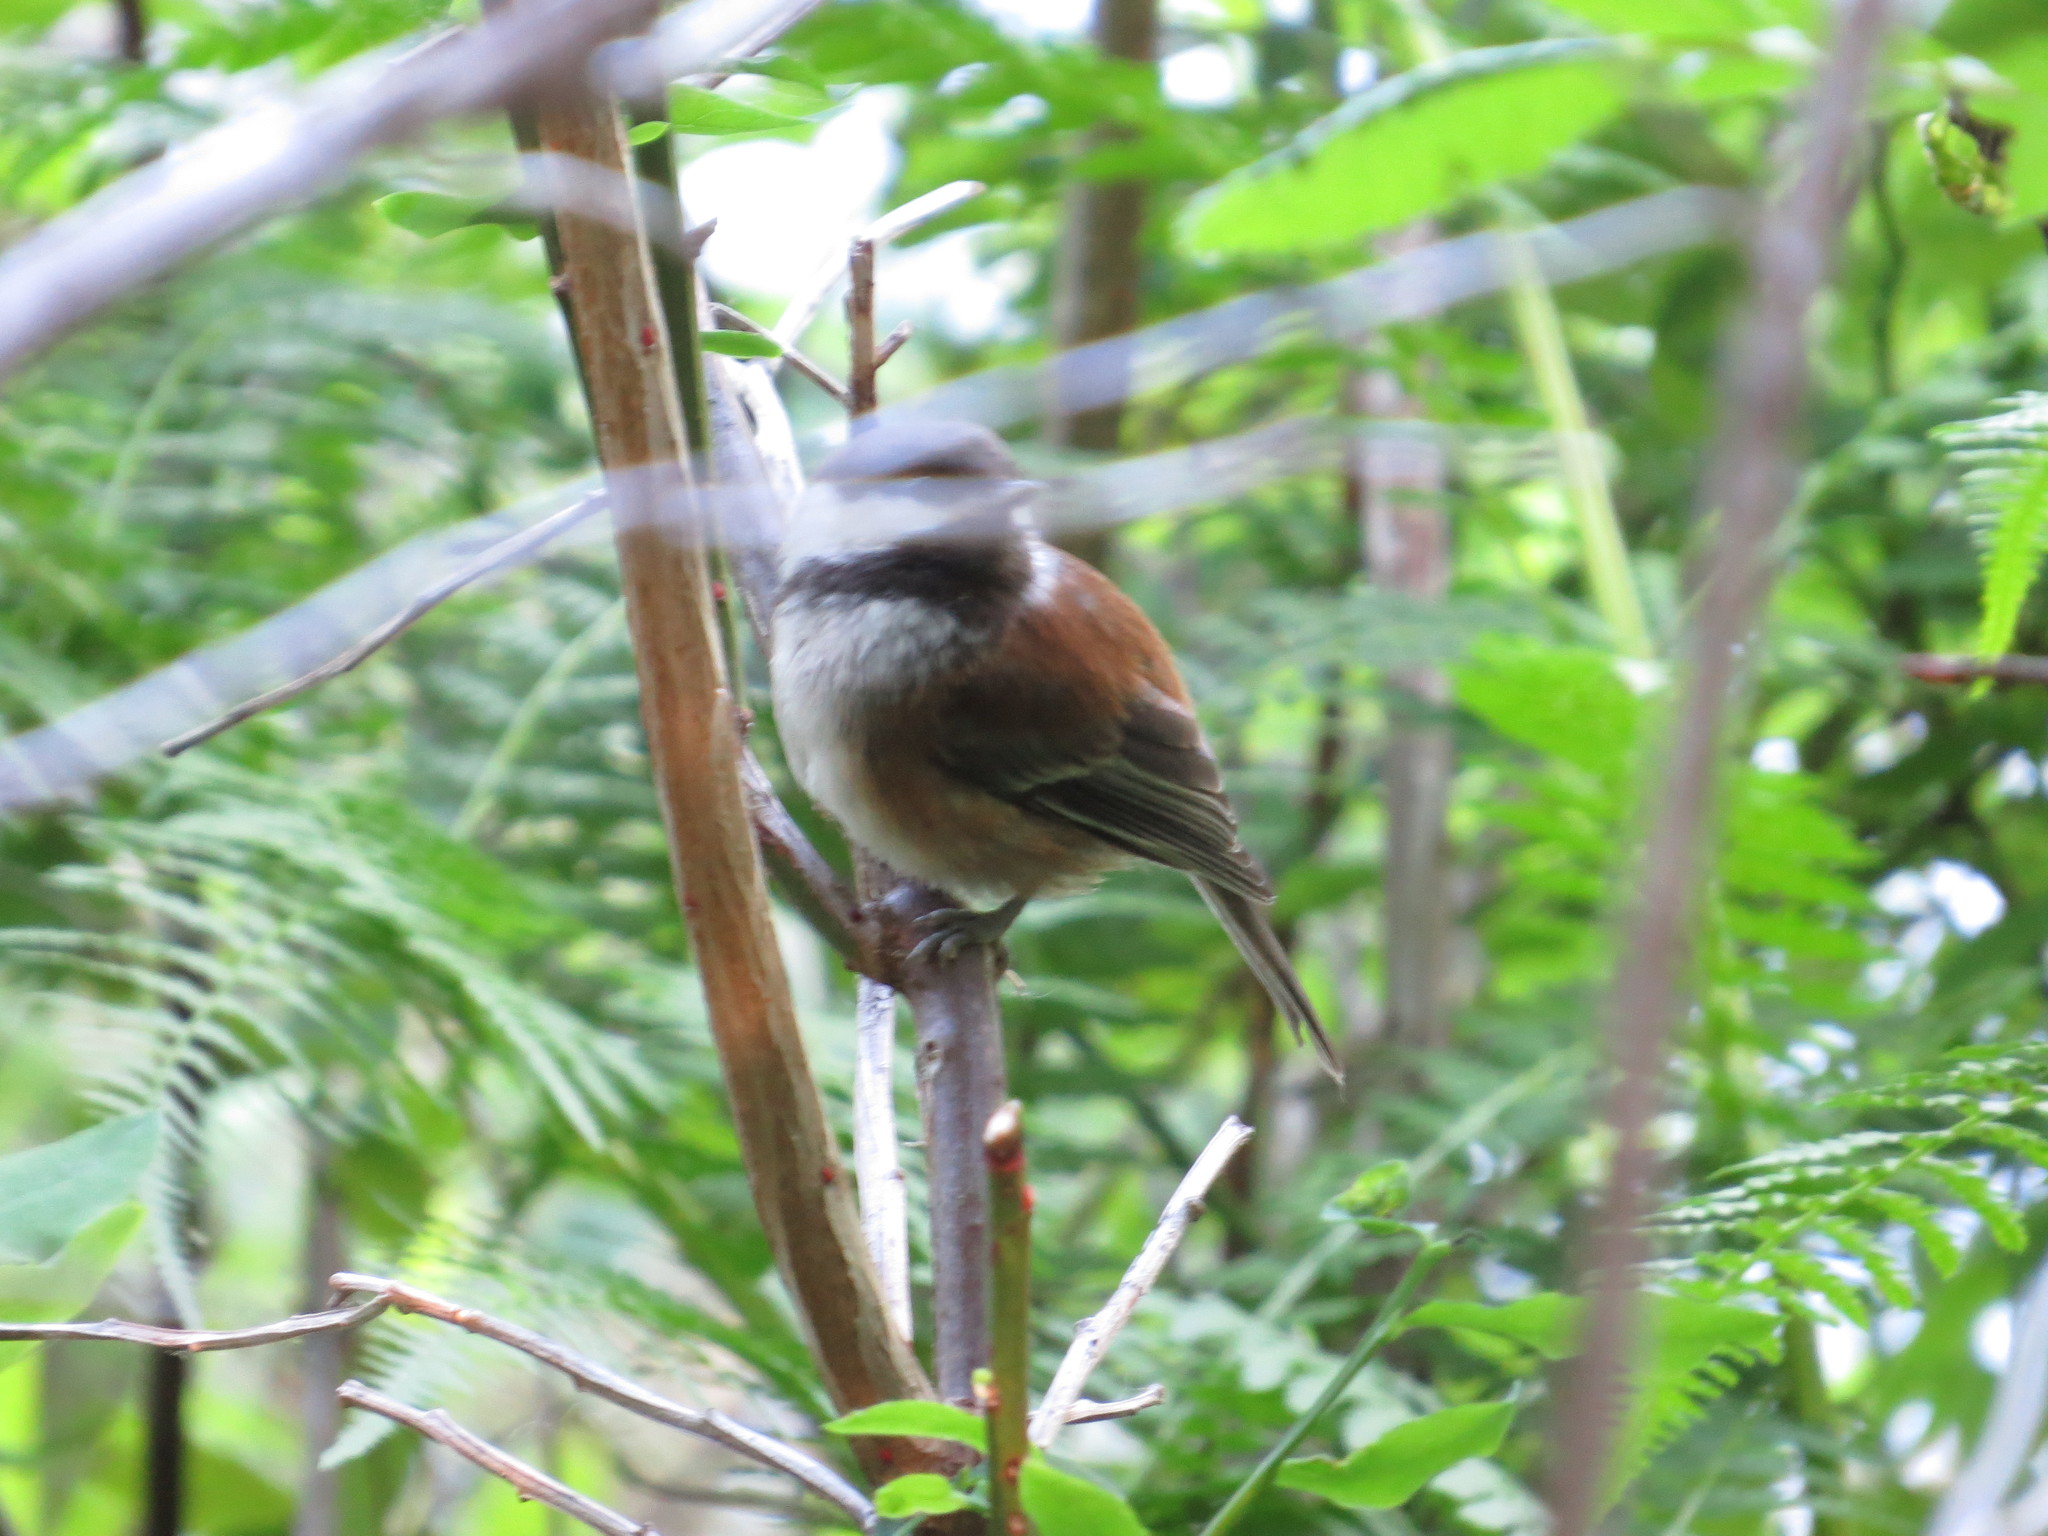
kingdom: Animalia
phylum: Chordata
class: Aves
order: Passeriformes
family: Paridae
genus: Poecile
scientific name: Poecile rufescens
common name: Chestnut-backed chickadee
